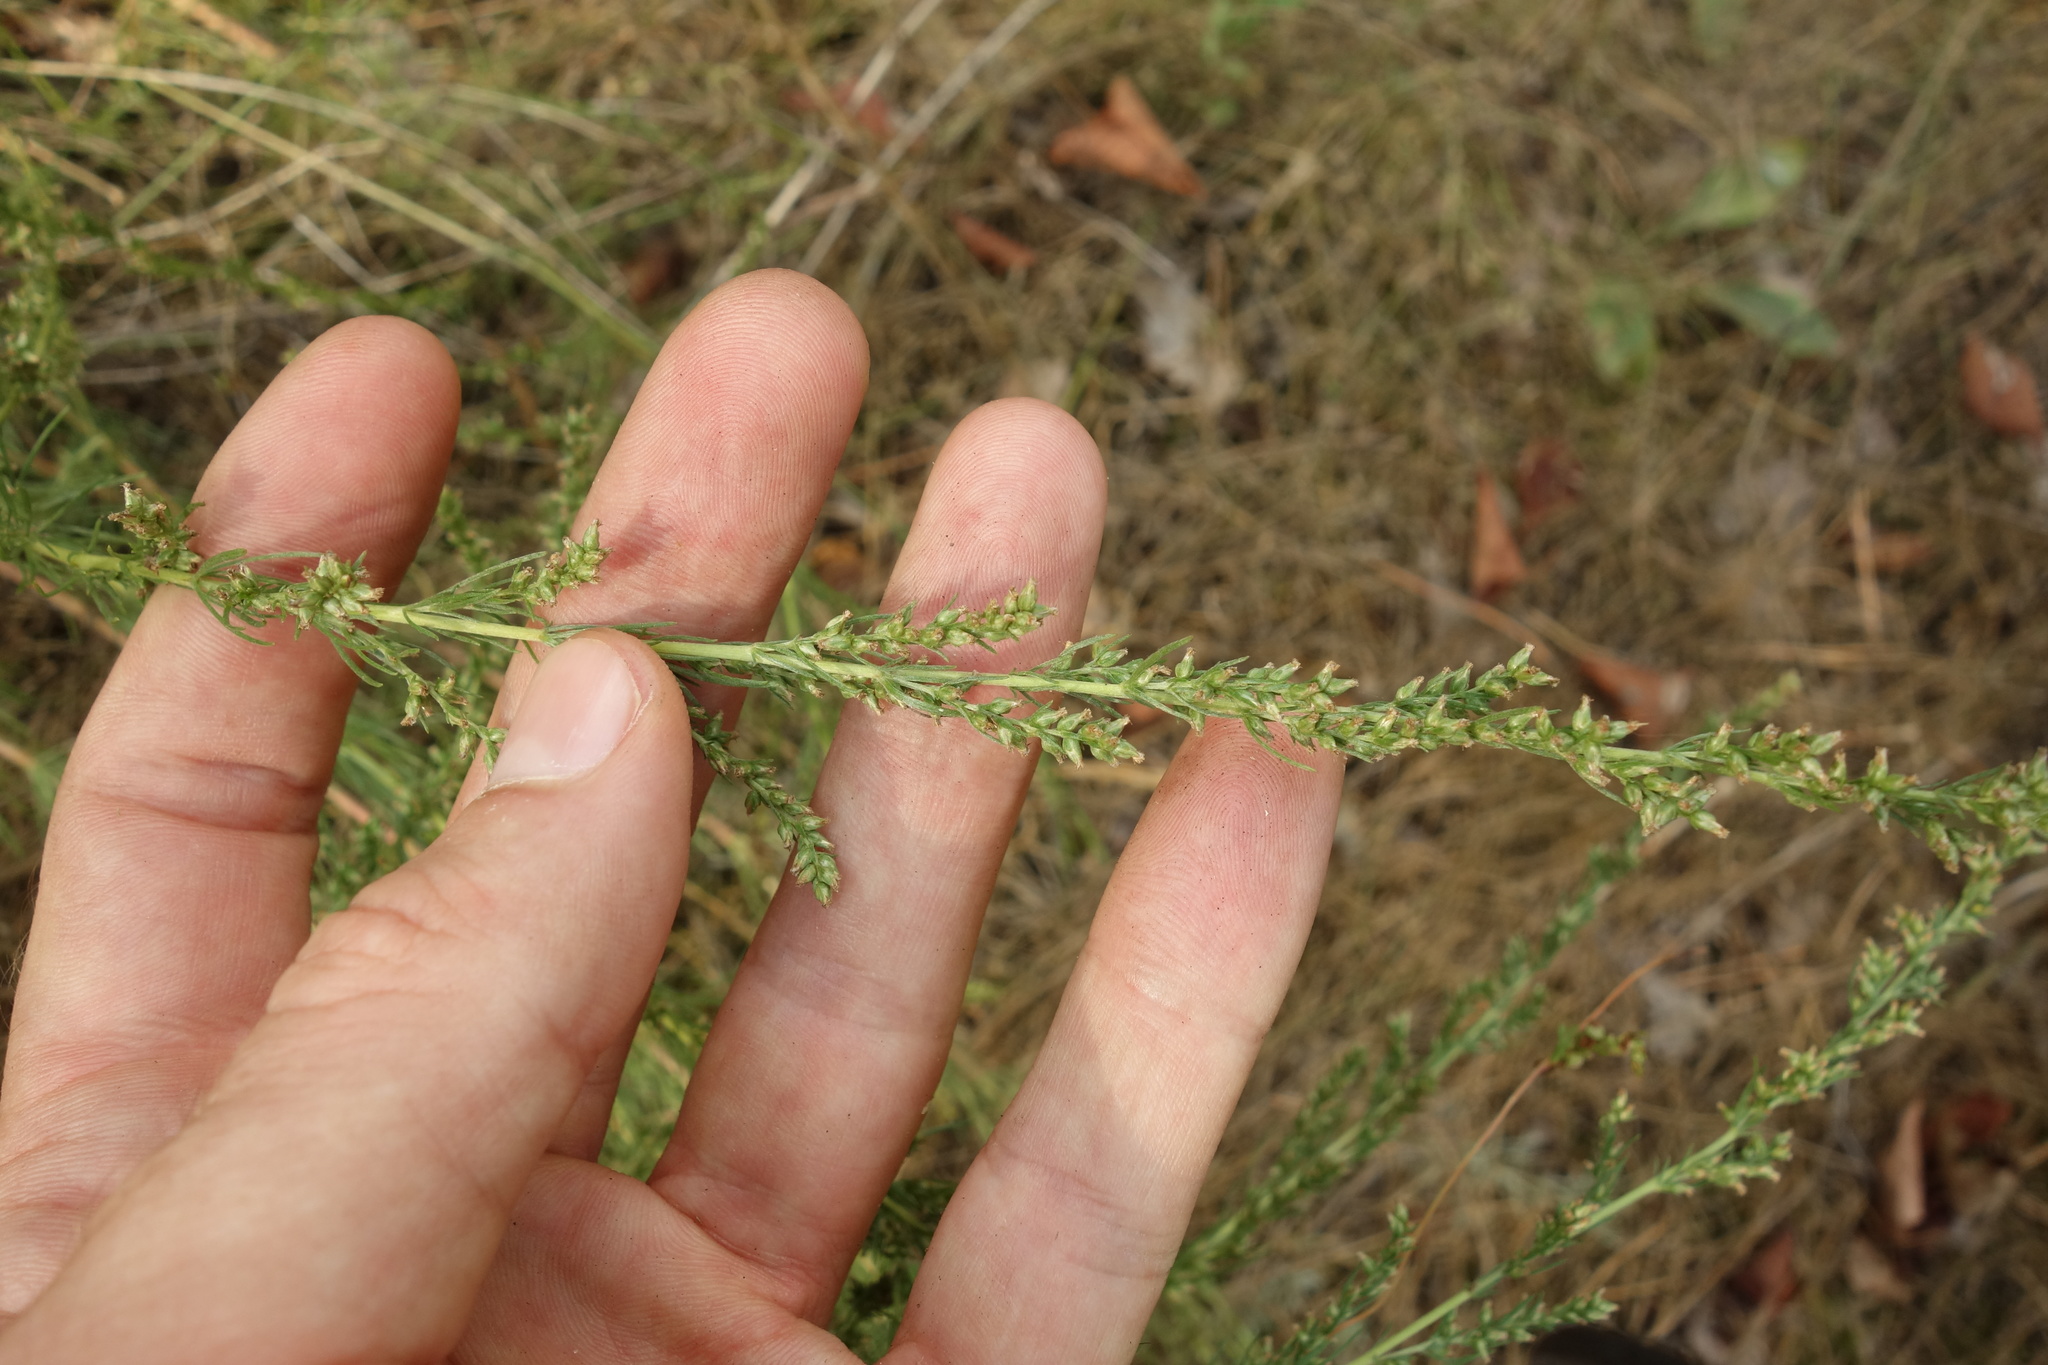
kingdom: Plantae
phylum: Tracheophyta
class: Magnoliopsida
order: Asterales
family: Asteraceae
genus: Artemisia
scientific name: Artemisia campestris
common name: Field wormwood
